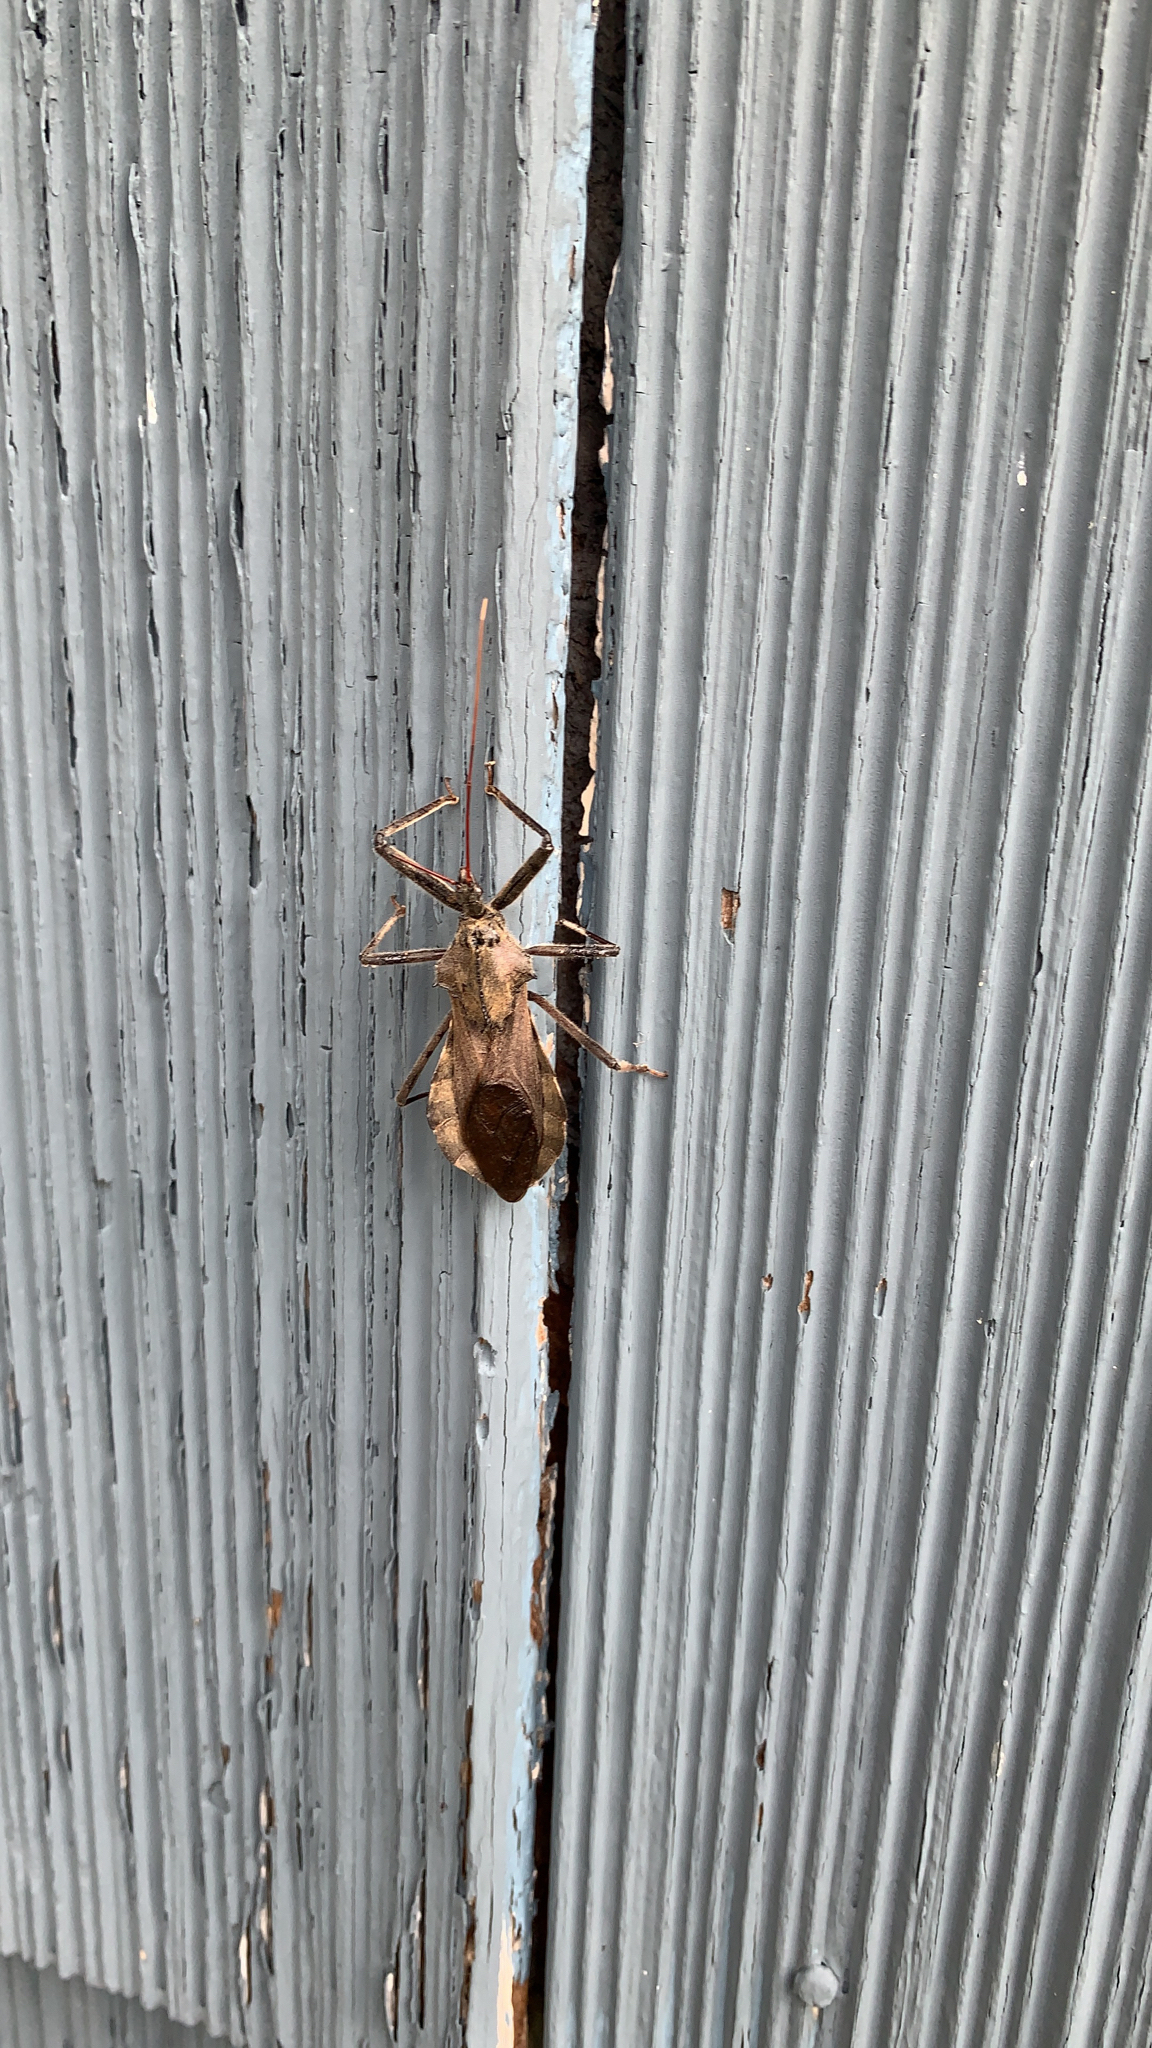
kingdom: Animalia
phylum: Arthropoda
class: Insecta
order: Hemiptera
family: Reduviidae
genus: Arilus
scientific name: Arilus cristatus
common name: North american wheel bug
